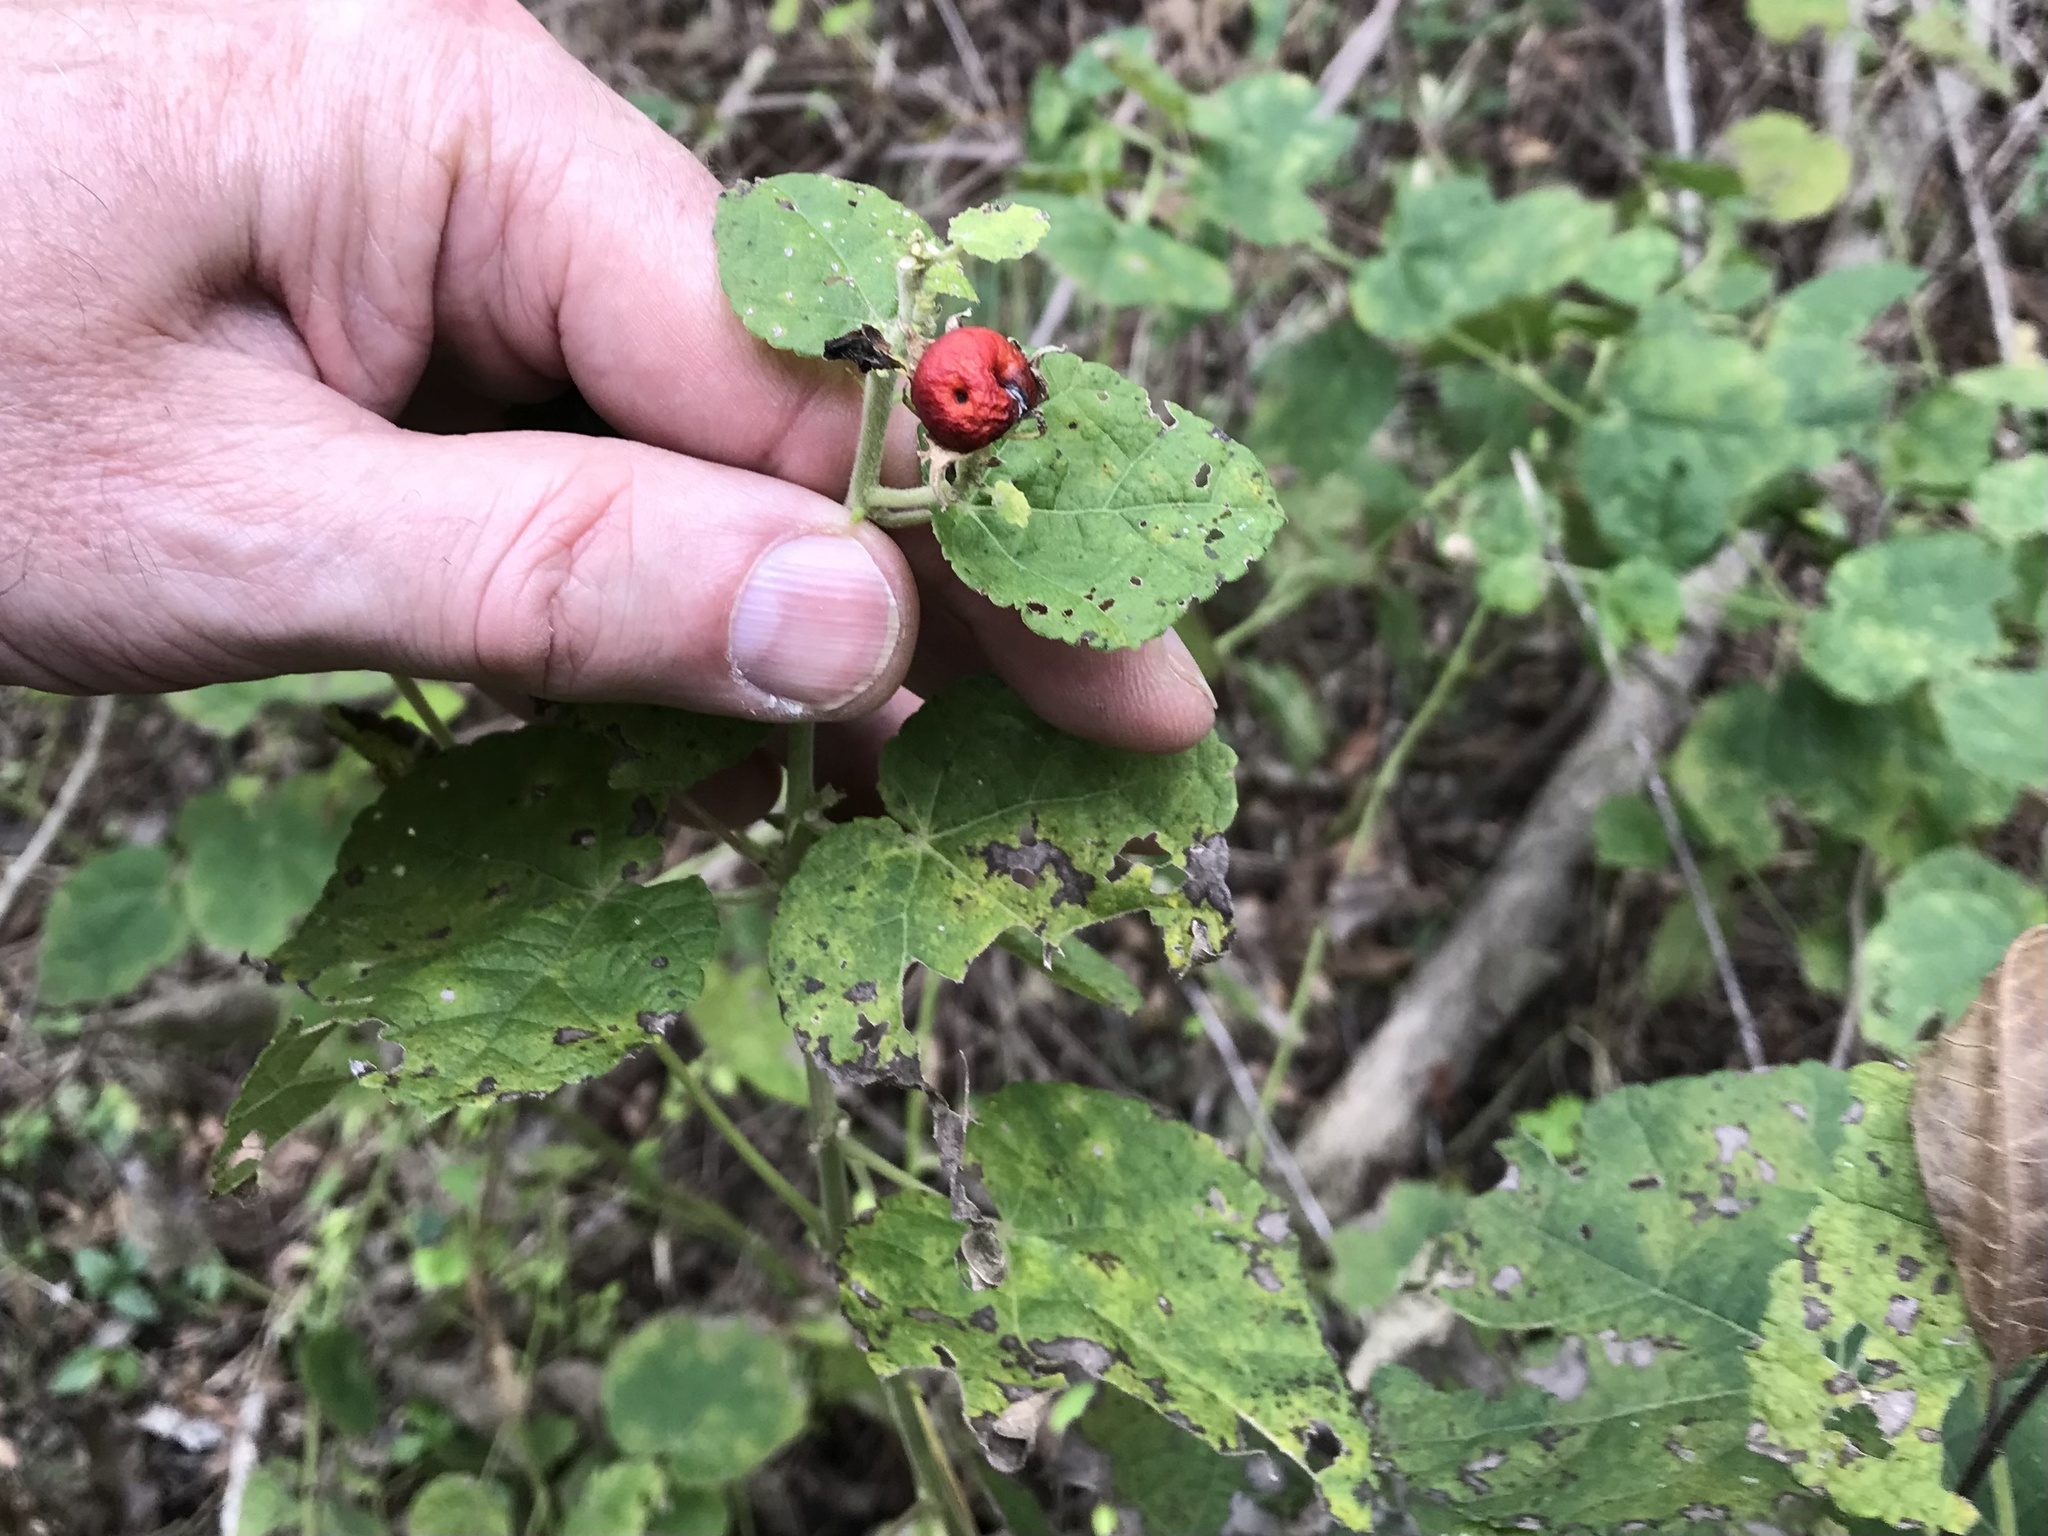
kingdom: Plantae
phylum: Tracheophyta
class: Magnoliopsida
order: Malvales
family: Malvaceae
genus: Malvaviscus
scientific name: Malvaviscus arboreus
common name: Wax mallow
